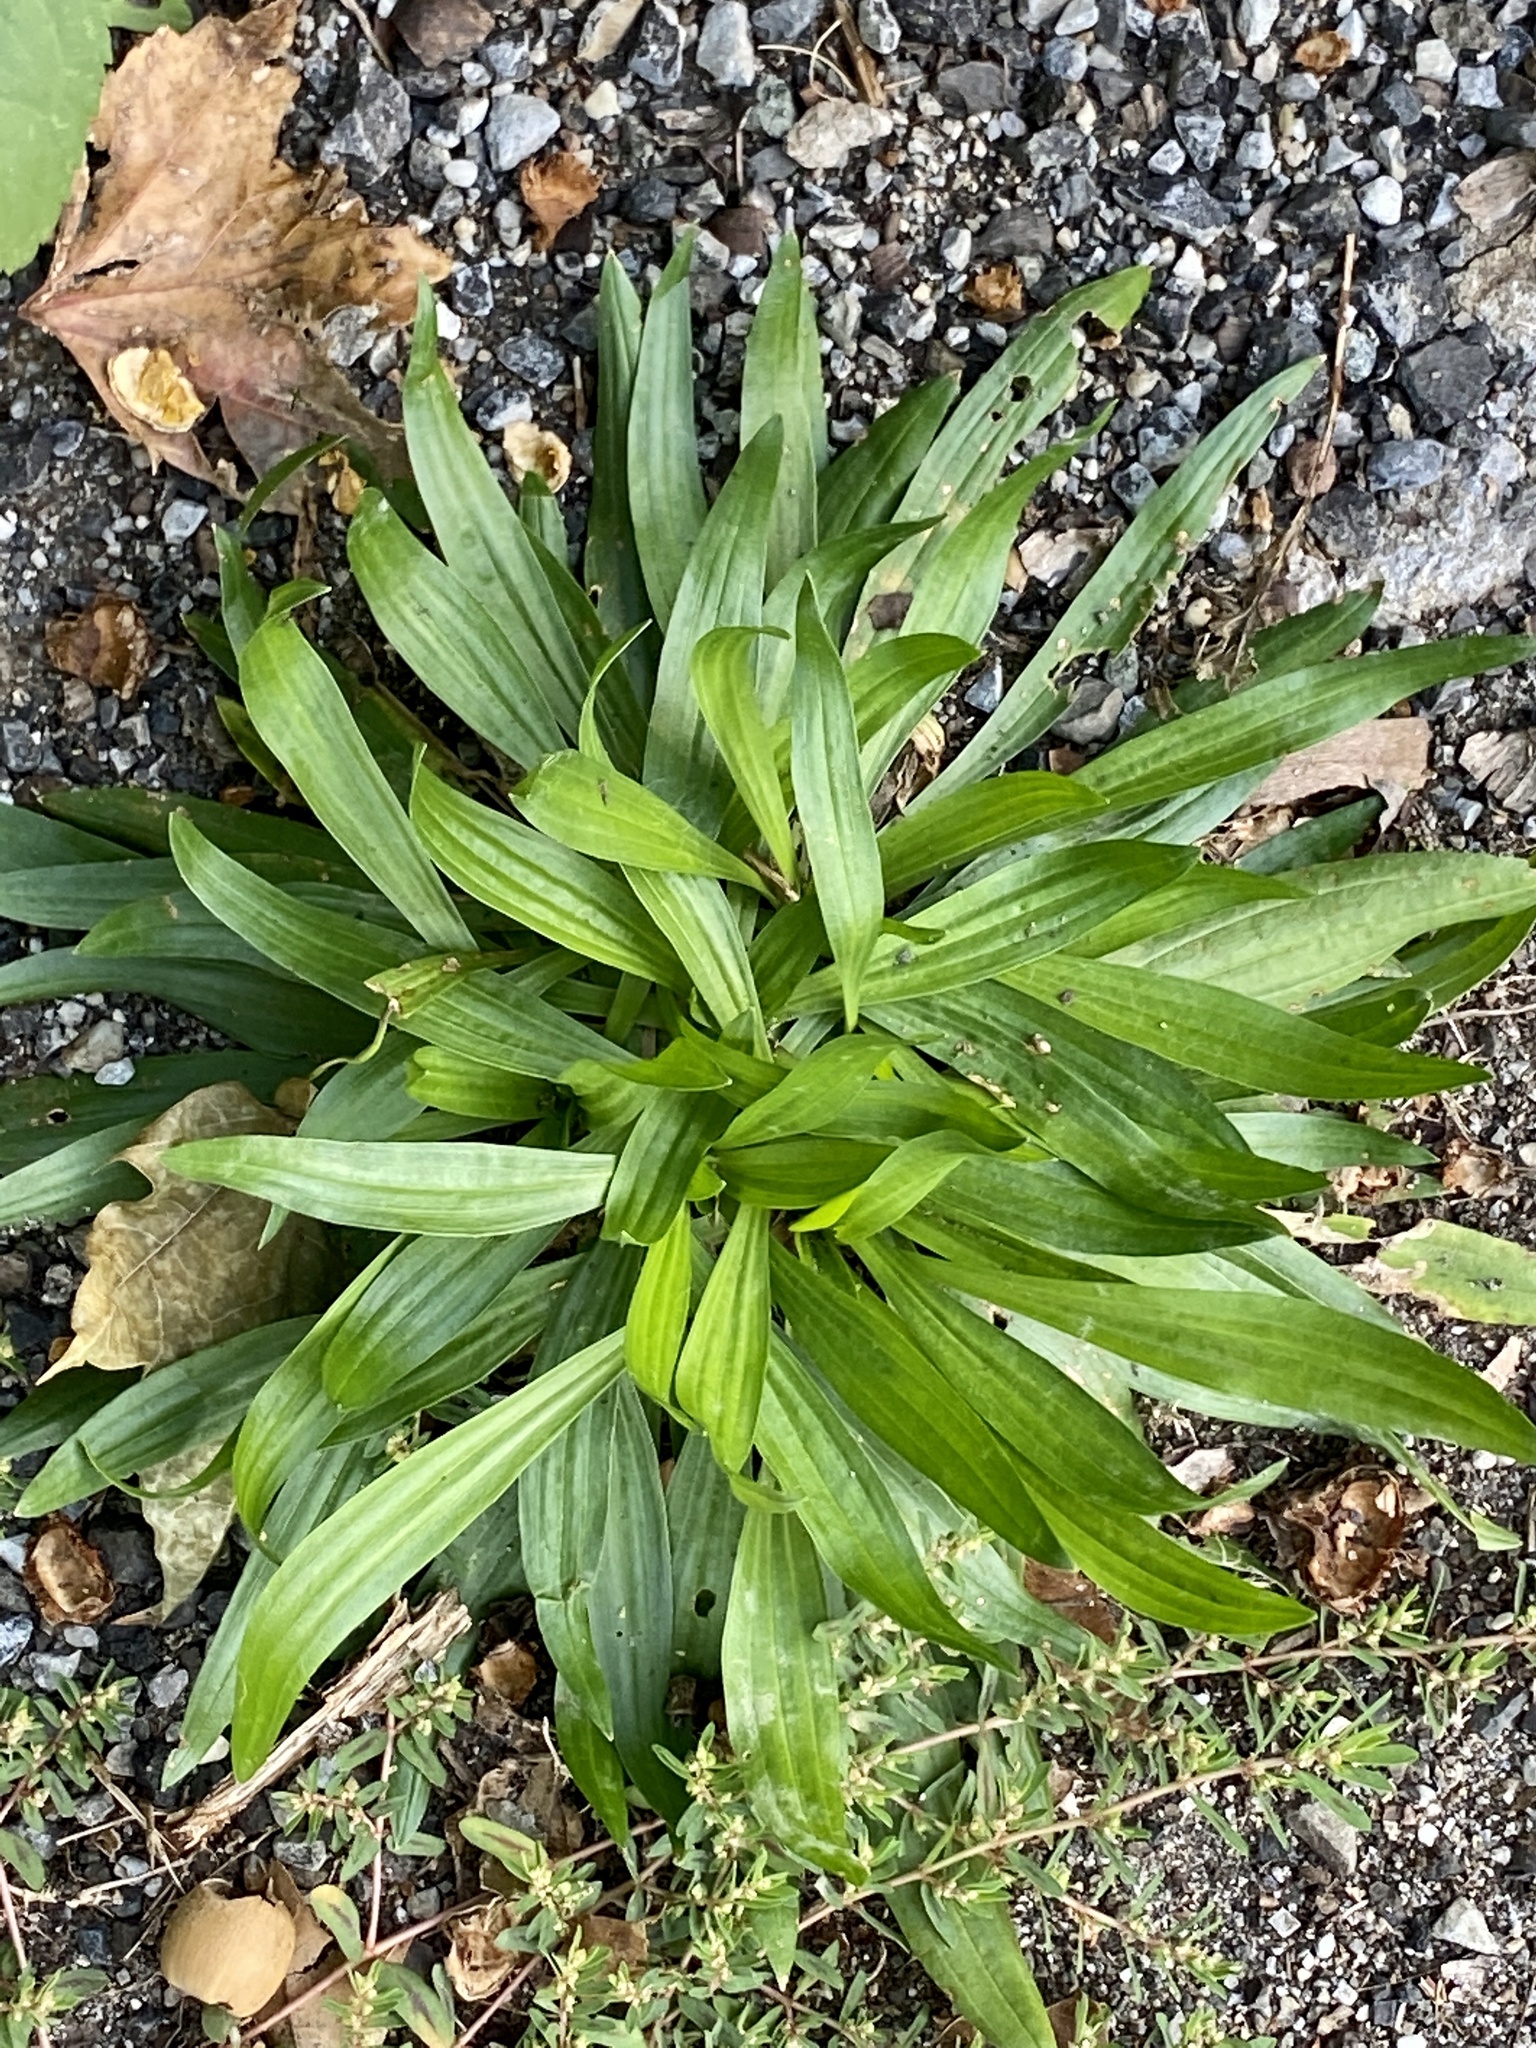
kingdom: Plantae
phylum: Tracheophyta
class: Magnoliopsida
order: Lamiales
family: Plantaginaceae
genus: Plantago
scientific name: Plantago lanceolata
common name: Ribwort plantain
